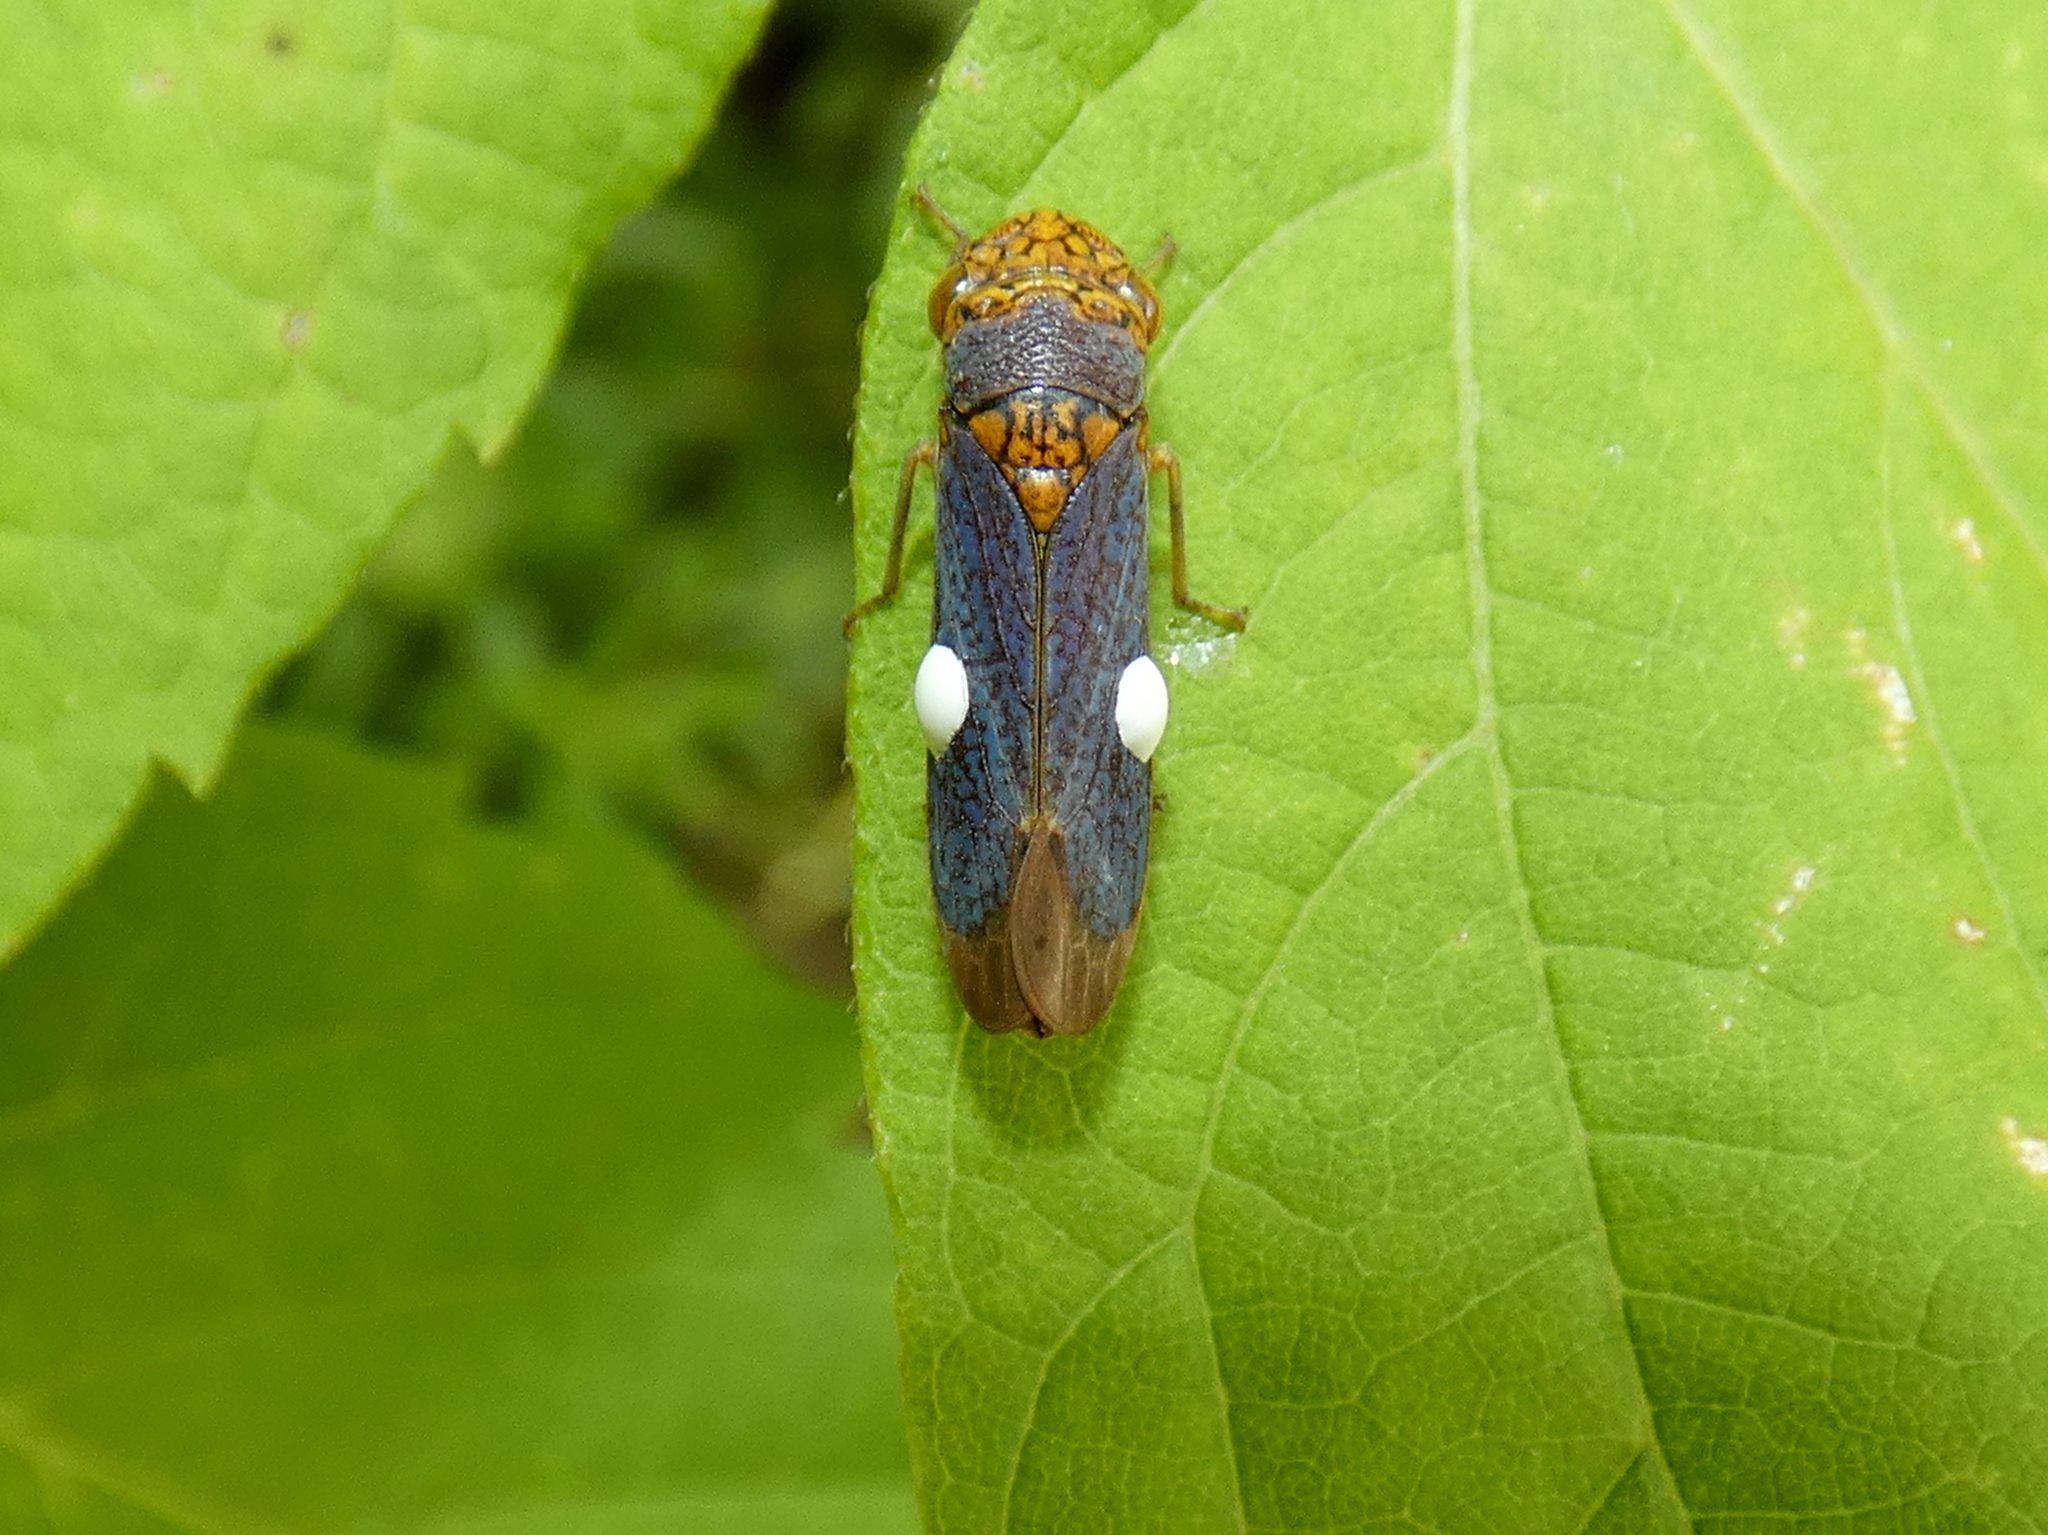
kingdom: Animalia
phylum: Arthropoda
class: Insecta
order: Hemiptera
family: Cicadellidae
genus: Oncometopia
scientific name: Oncometopia orbona
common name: Broad-headed sharpshooter
